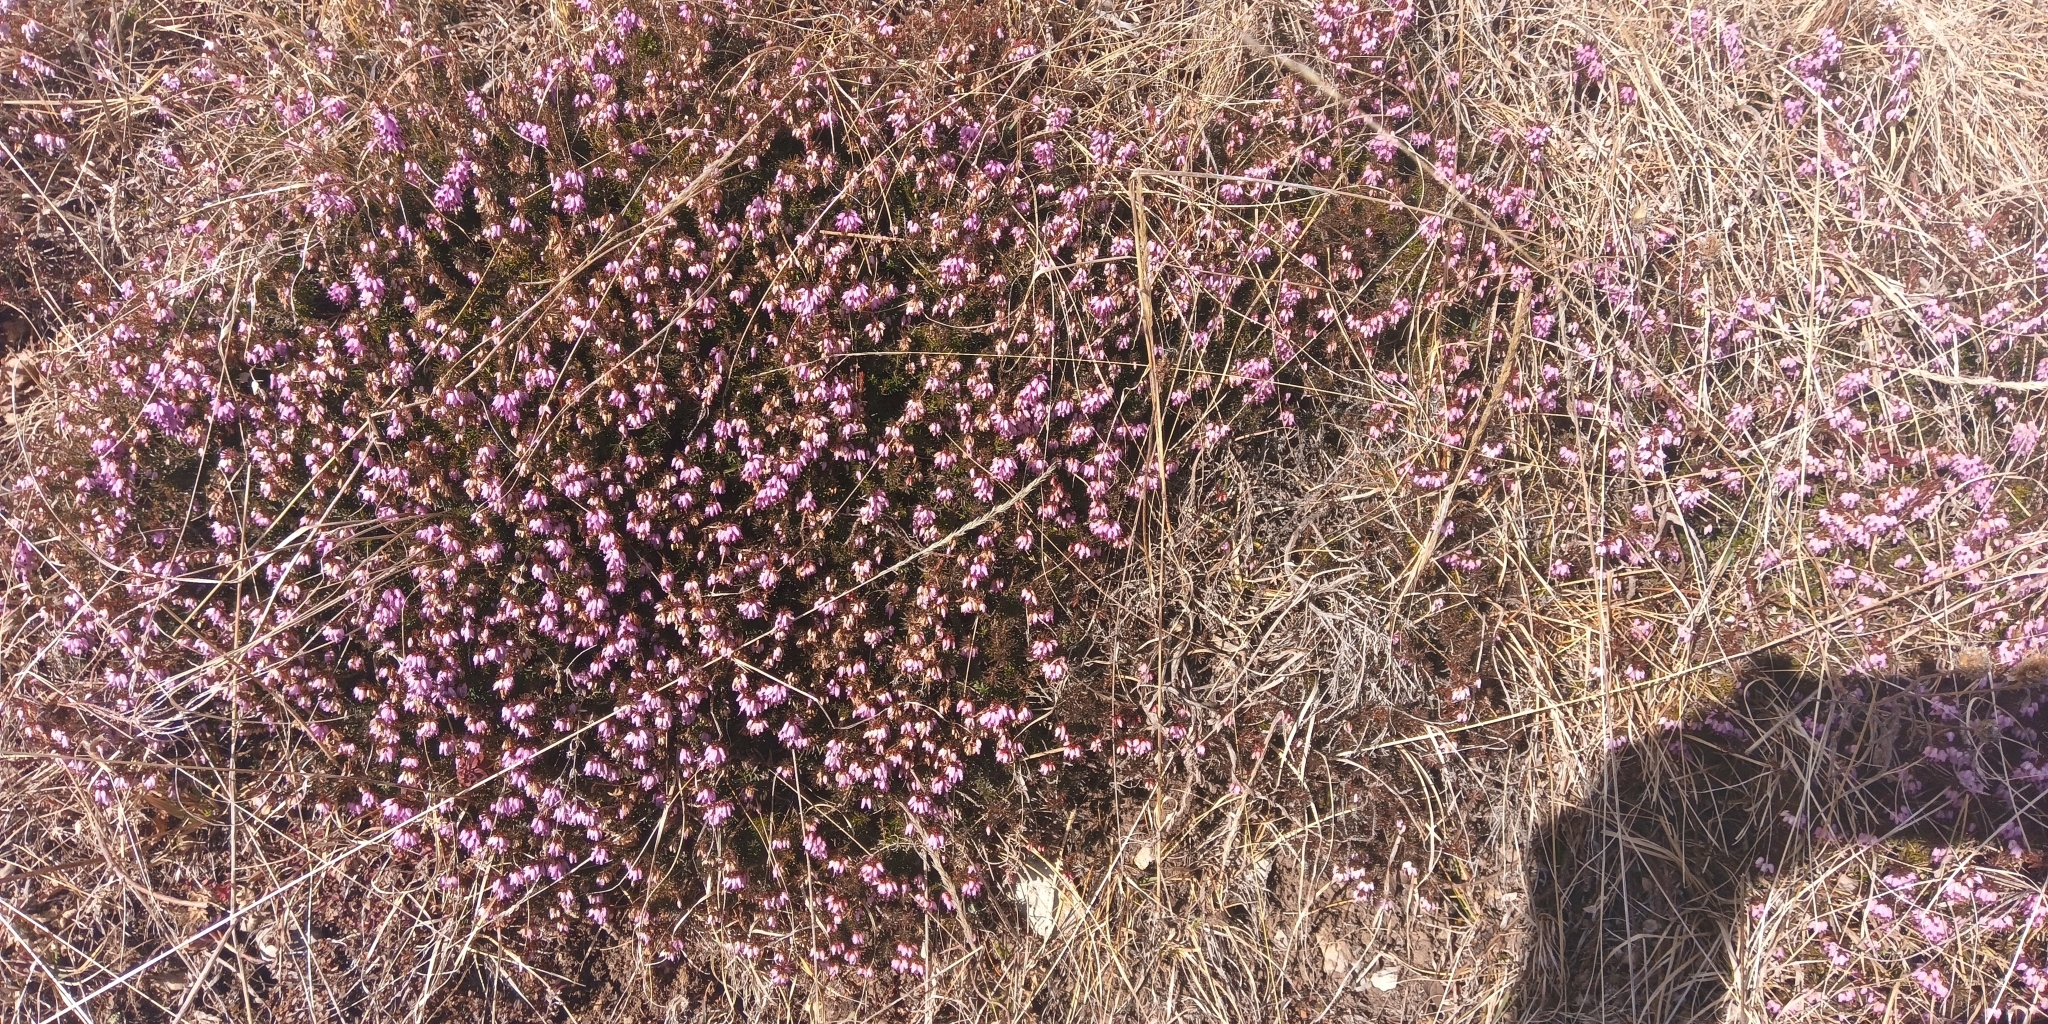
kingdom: Plantae
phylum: Tracheophyta
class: Magnoliopsida
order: Ericales
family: Ericaceae
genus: Erica
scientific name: Erica carnea
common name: Winter heath
